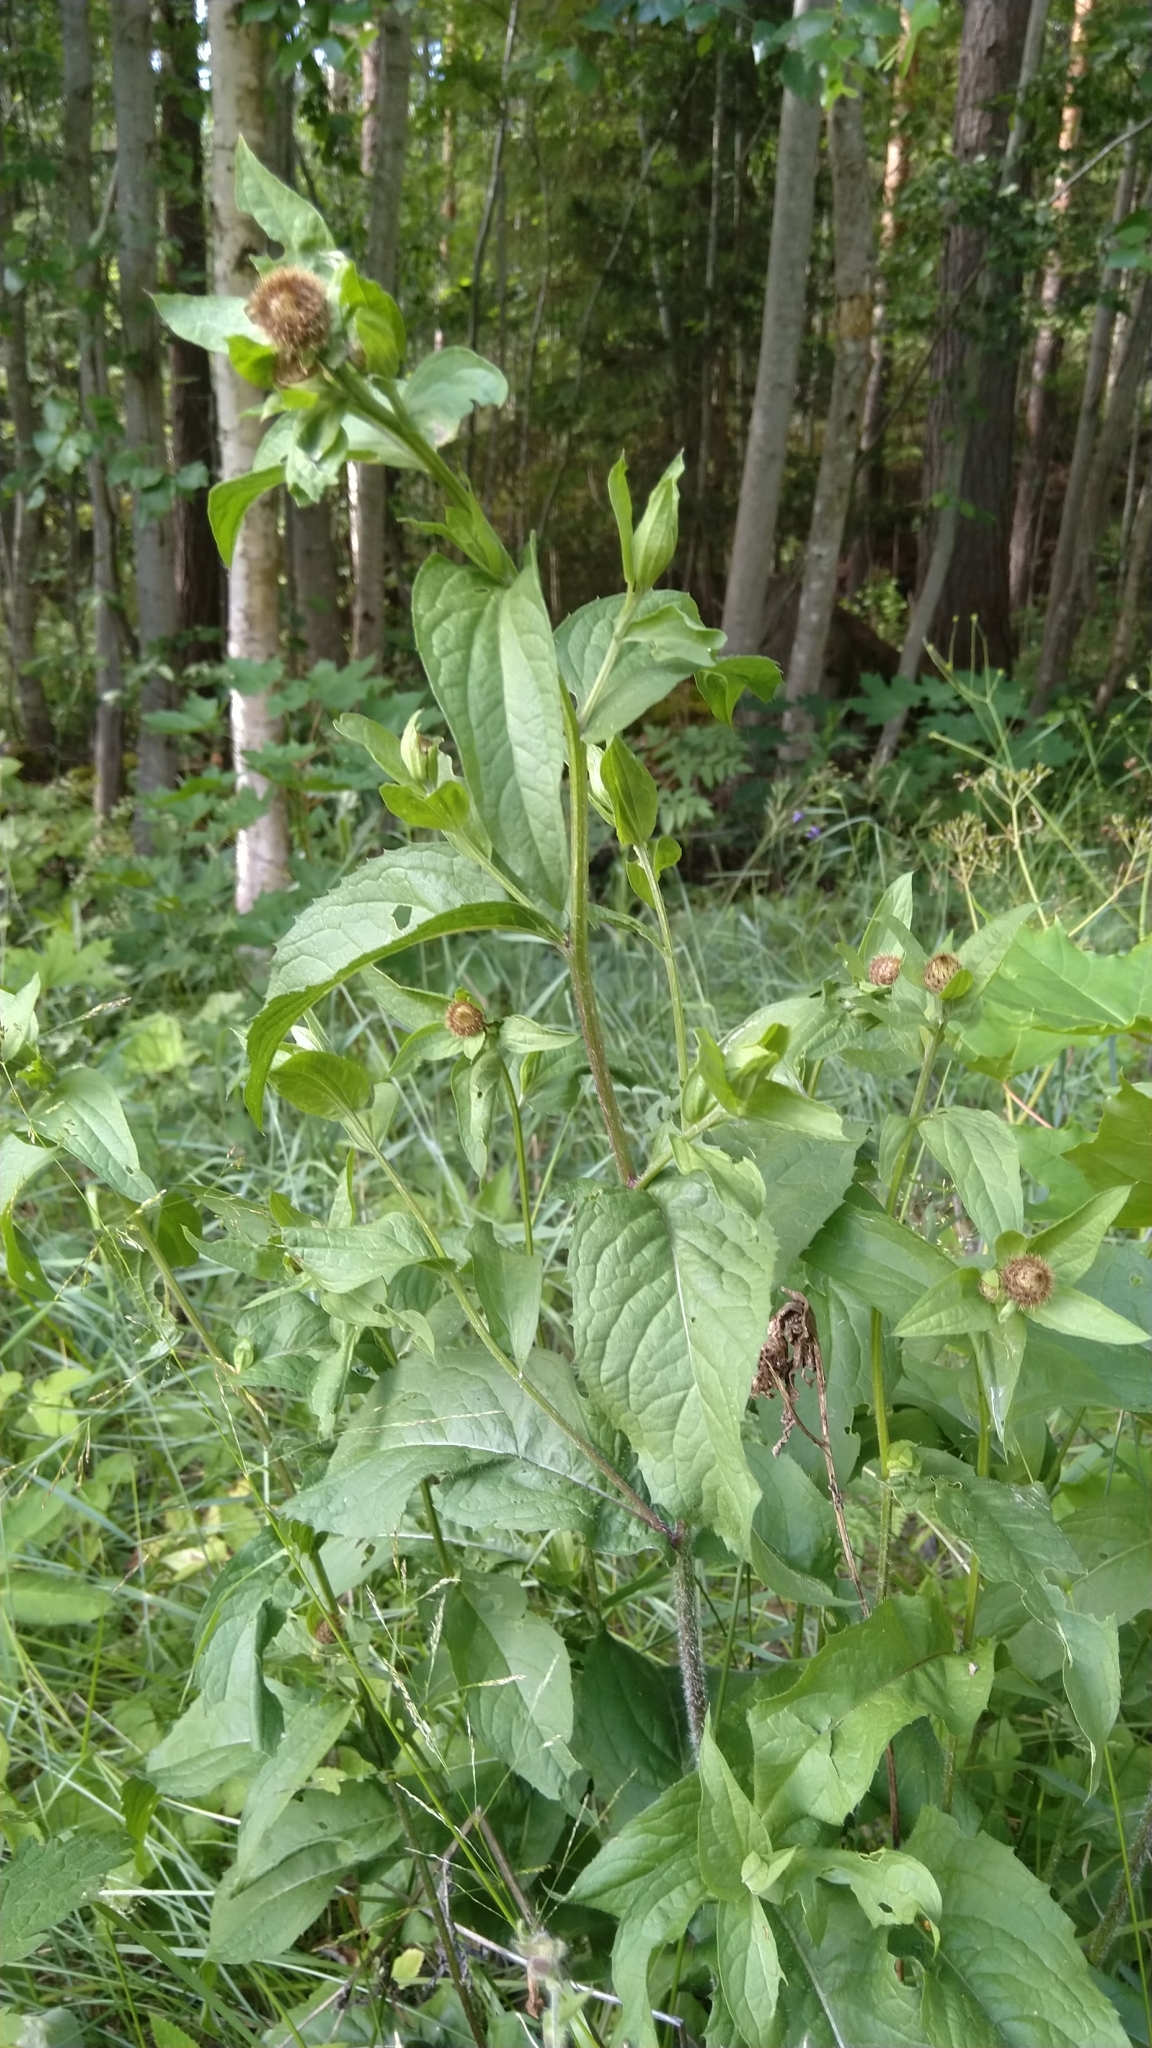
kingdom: Plantae
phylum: Tracheophyta
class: Magnoliopsida
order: Asterales
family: Asteraceae
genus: Centaurea
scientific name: Centaurea phrygia
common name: Wig knapweed
